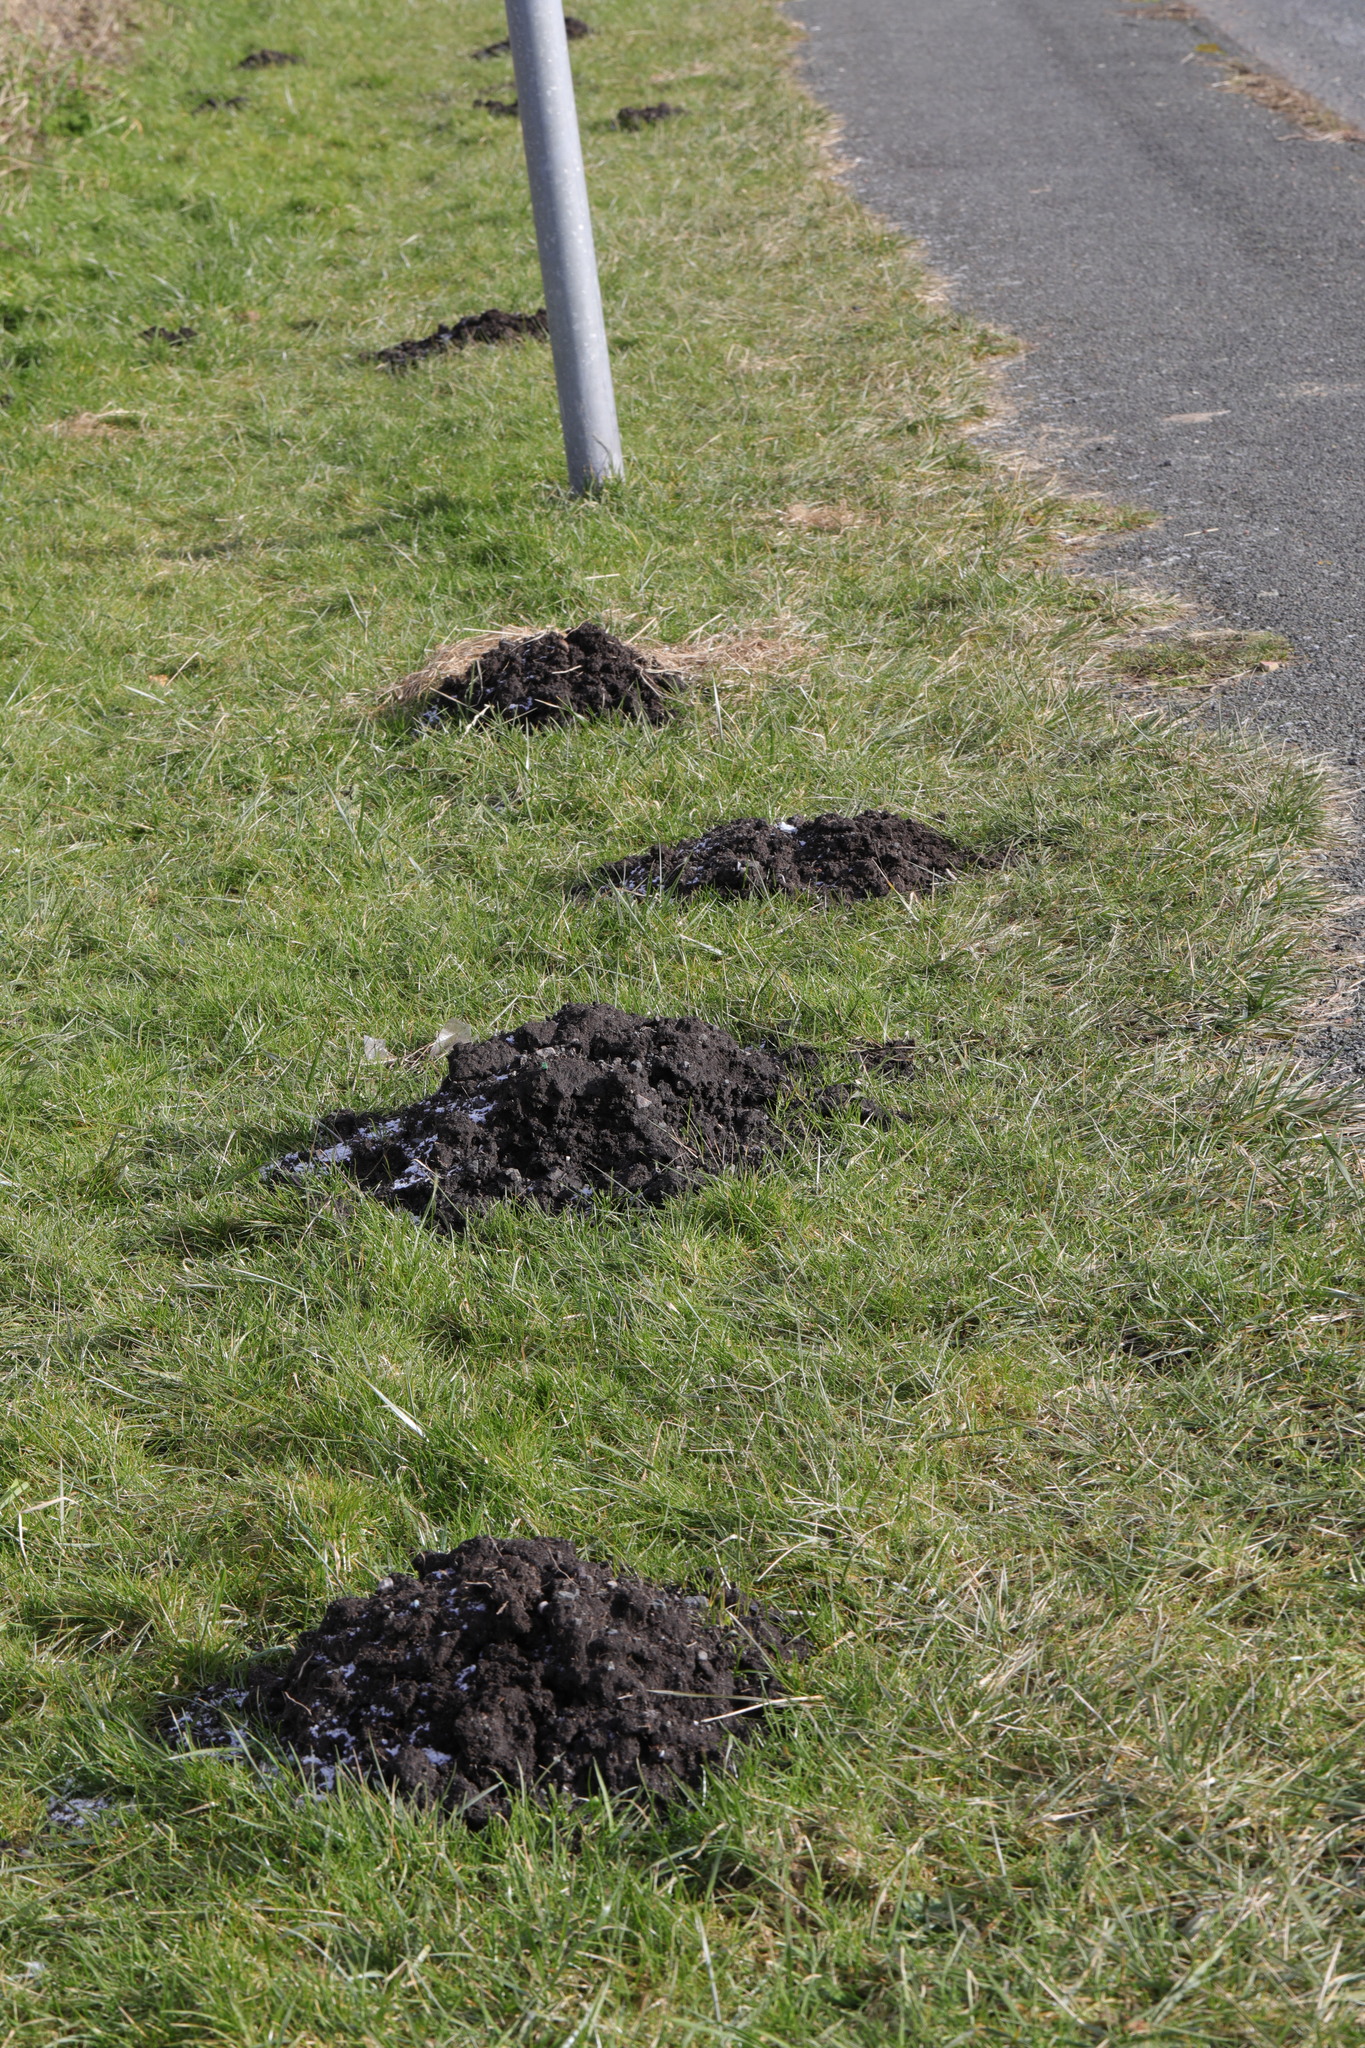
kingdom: Animalia
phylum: Chordata
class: Mammalia
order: Soricomorpha
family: Talpidae
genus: Talpa
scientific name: Talpa europaea
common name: European mole
